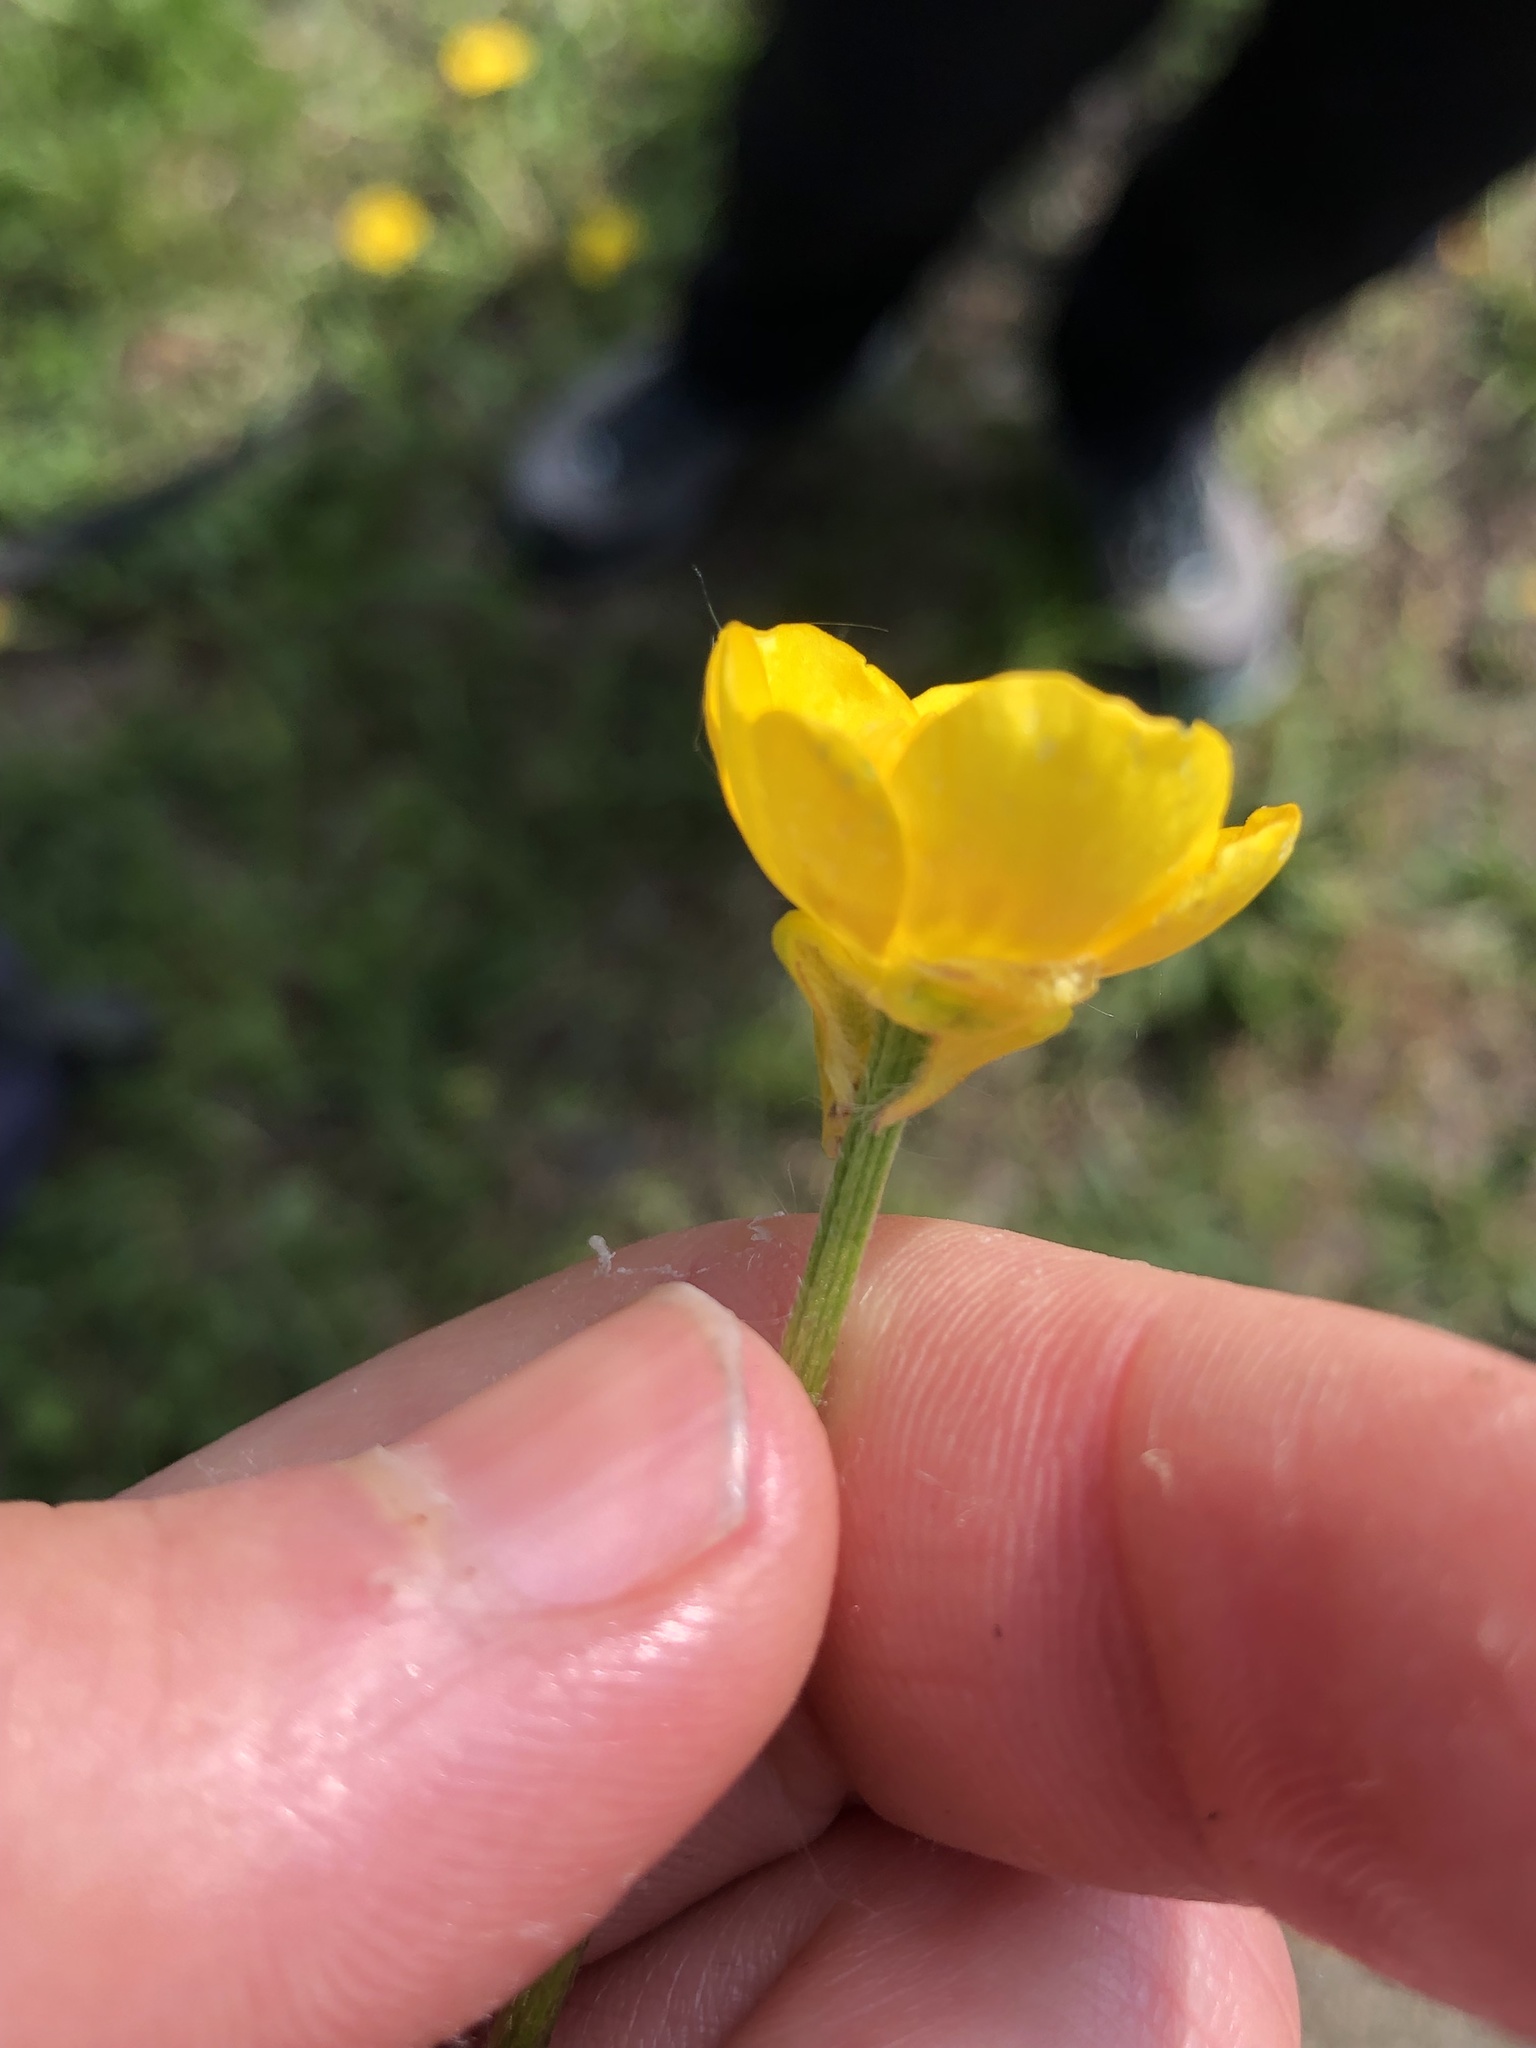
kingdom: Plantae
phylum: Tracheophyta
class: Magnoliopsida
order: Ranunculales
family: Ranunculaceae
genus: Ranunculus
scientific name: Ranunculus bulbosus
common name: Bulbous buttercup
